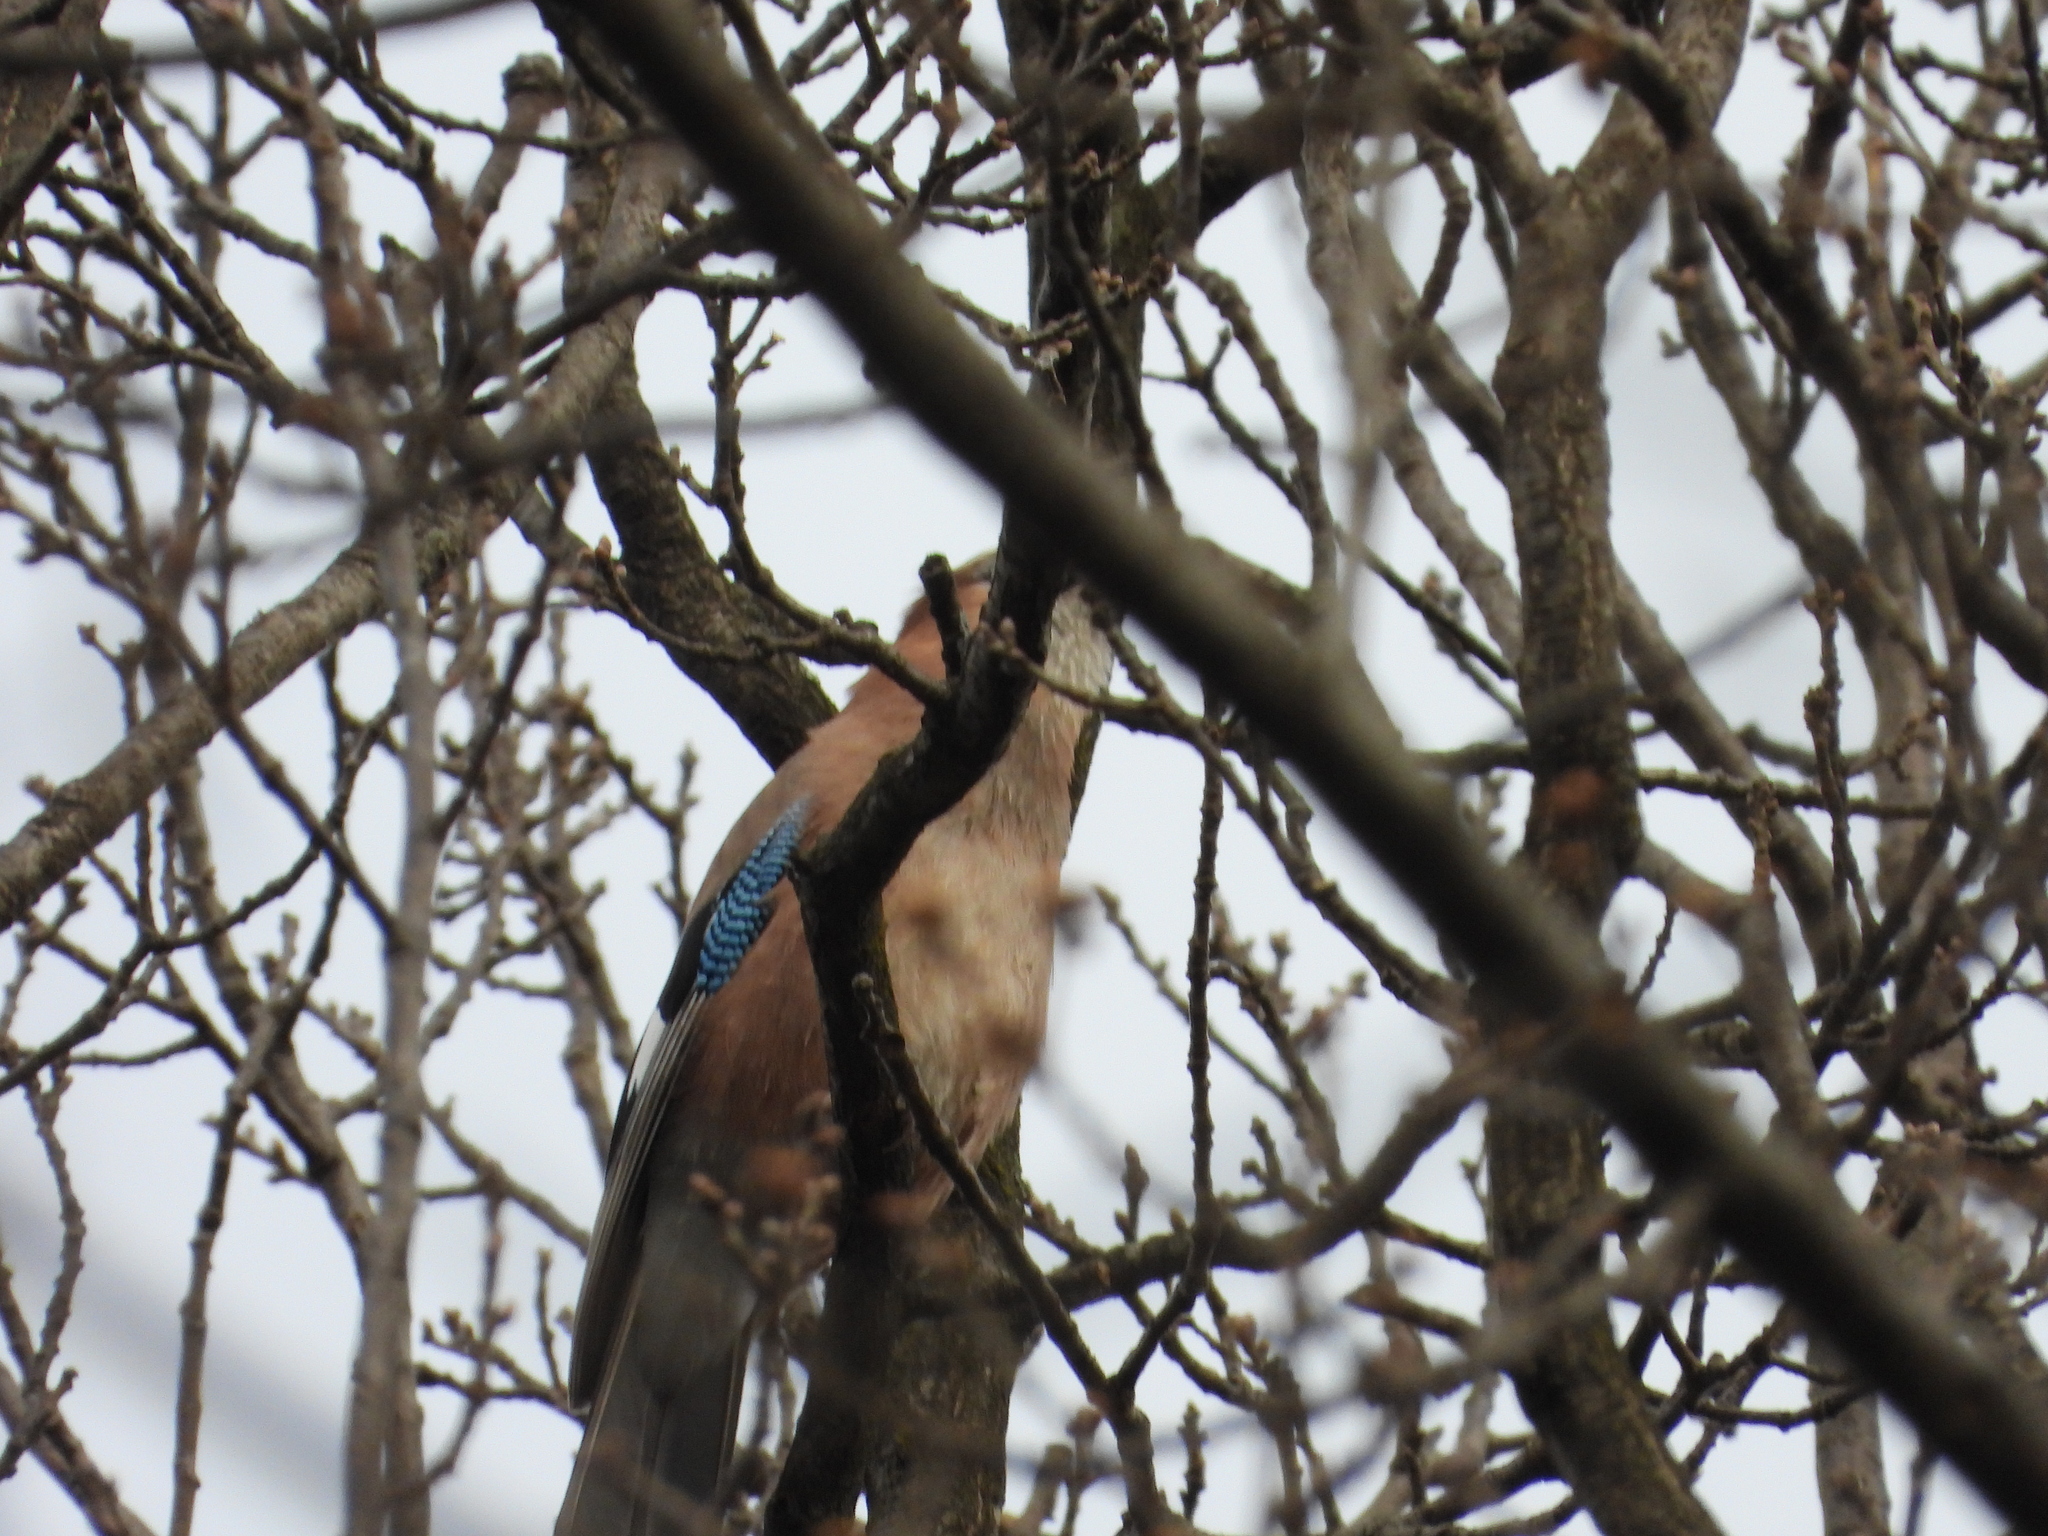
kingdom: Animalia
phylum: Chordata
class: Aves
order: Passeriformes
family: Corvidae
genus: Garrulus
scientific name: Garrulus glandarius
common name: Eurasian jay
